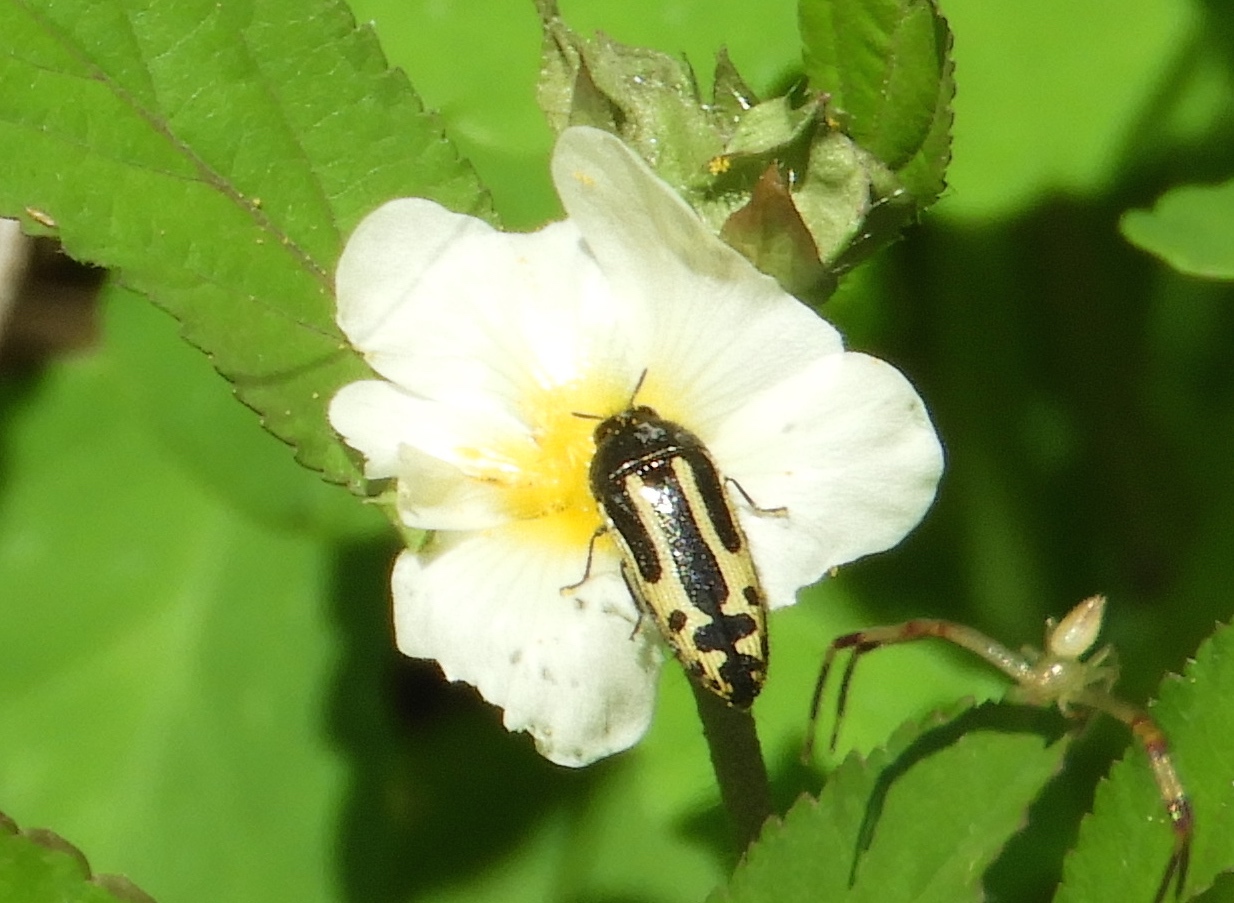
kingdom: Animalia
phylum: Arthropoda
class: Insecta
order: Coleoptera
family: Buprestidae
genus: Acmaeodera
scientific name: Acmaeodera scalaris
